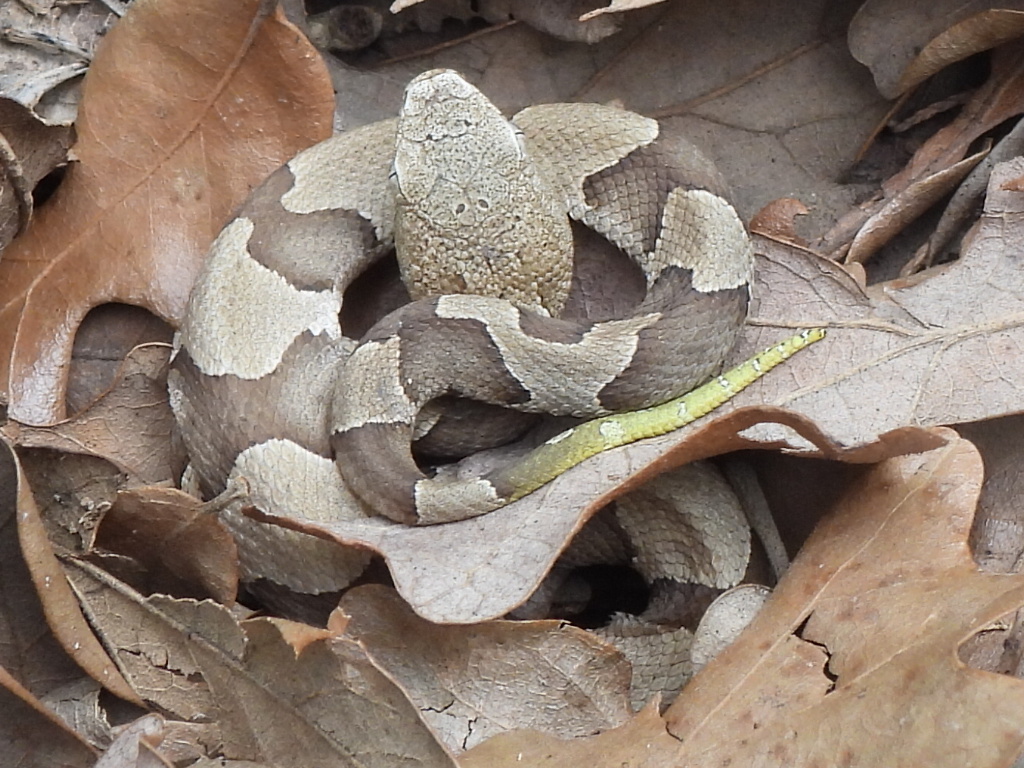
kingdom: Animalia
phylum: Chordata
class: Squamata
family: Viperidae
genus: Agkistrodon
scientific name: Agkistrodon contortrix
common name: Northern copperhead
